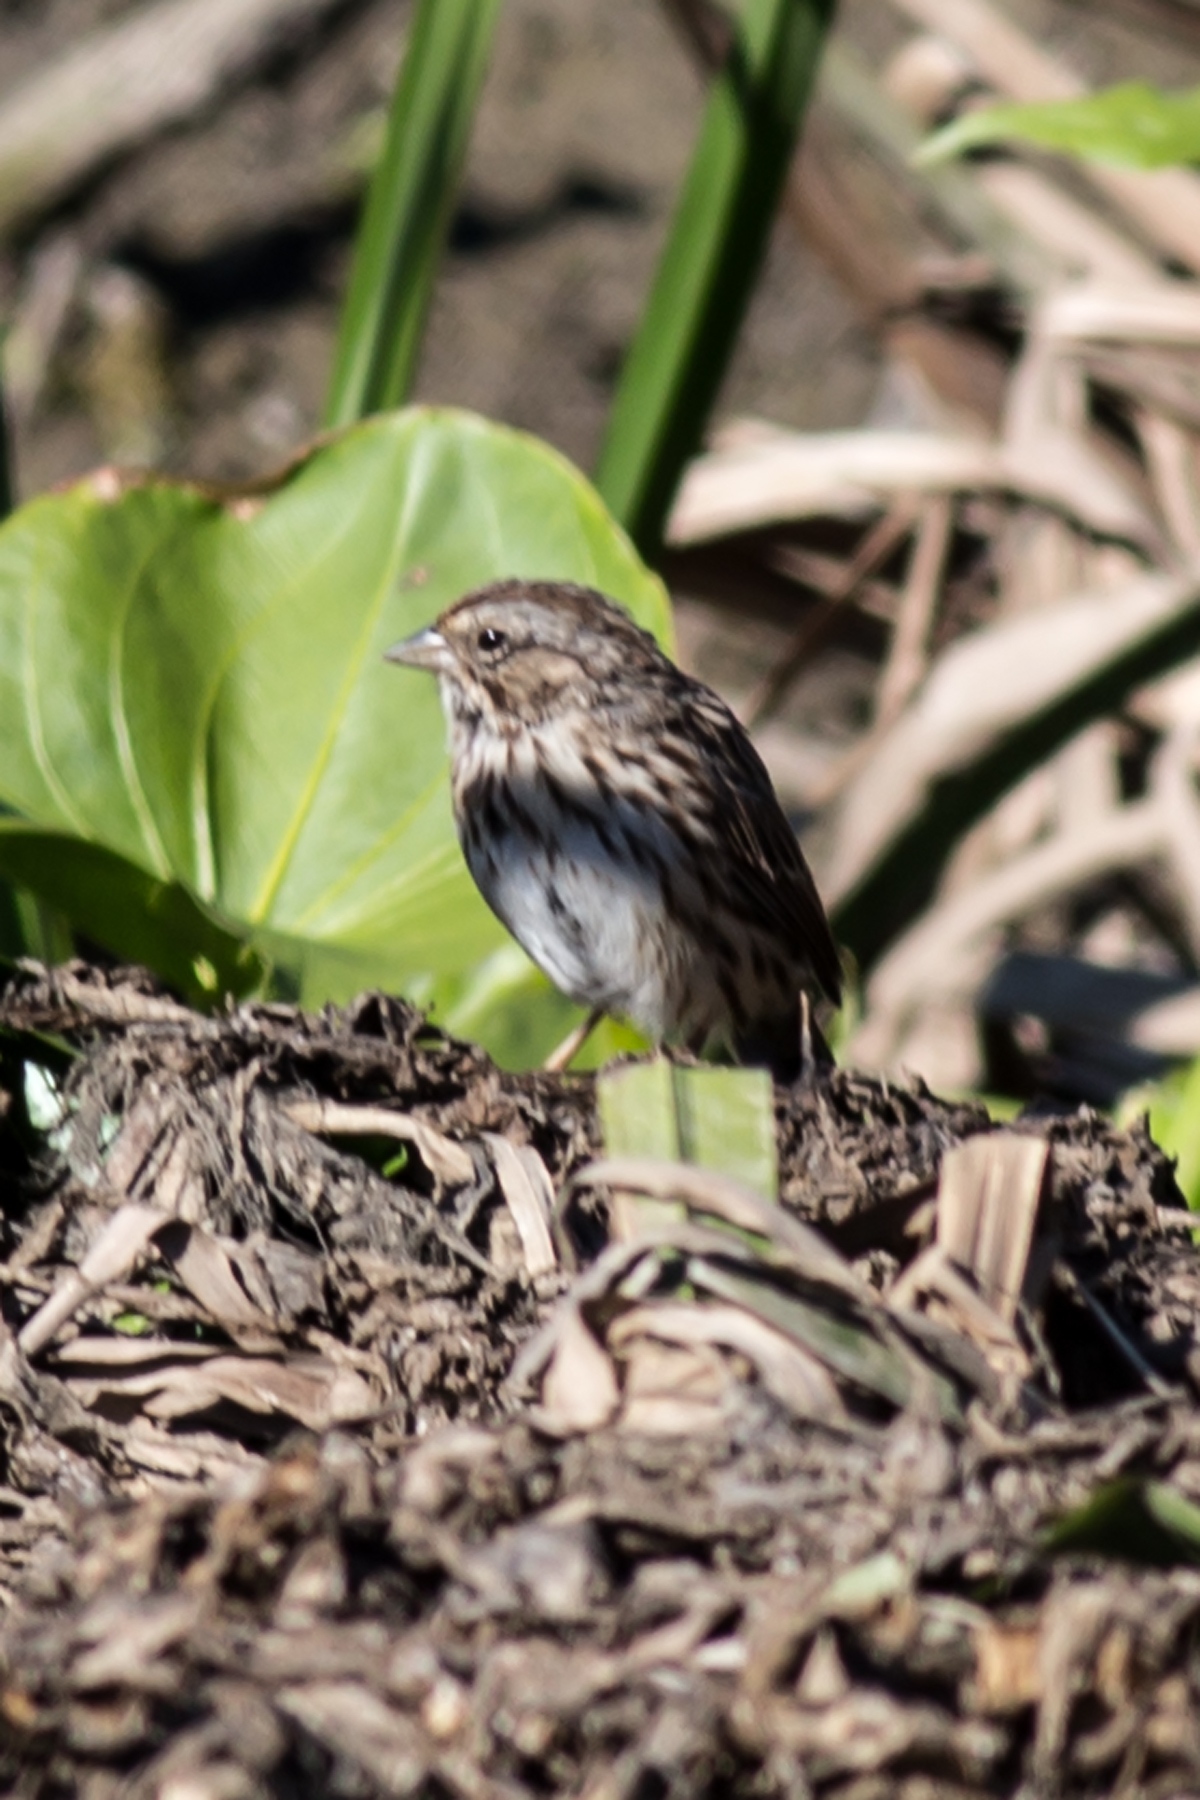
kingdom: Animalia
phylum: Chordata
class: Aves
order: Passeriformes
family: Passerellidae
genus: Melospiza
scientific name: Melospiza melodia
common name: Song sparrow
